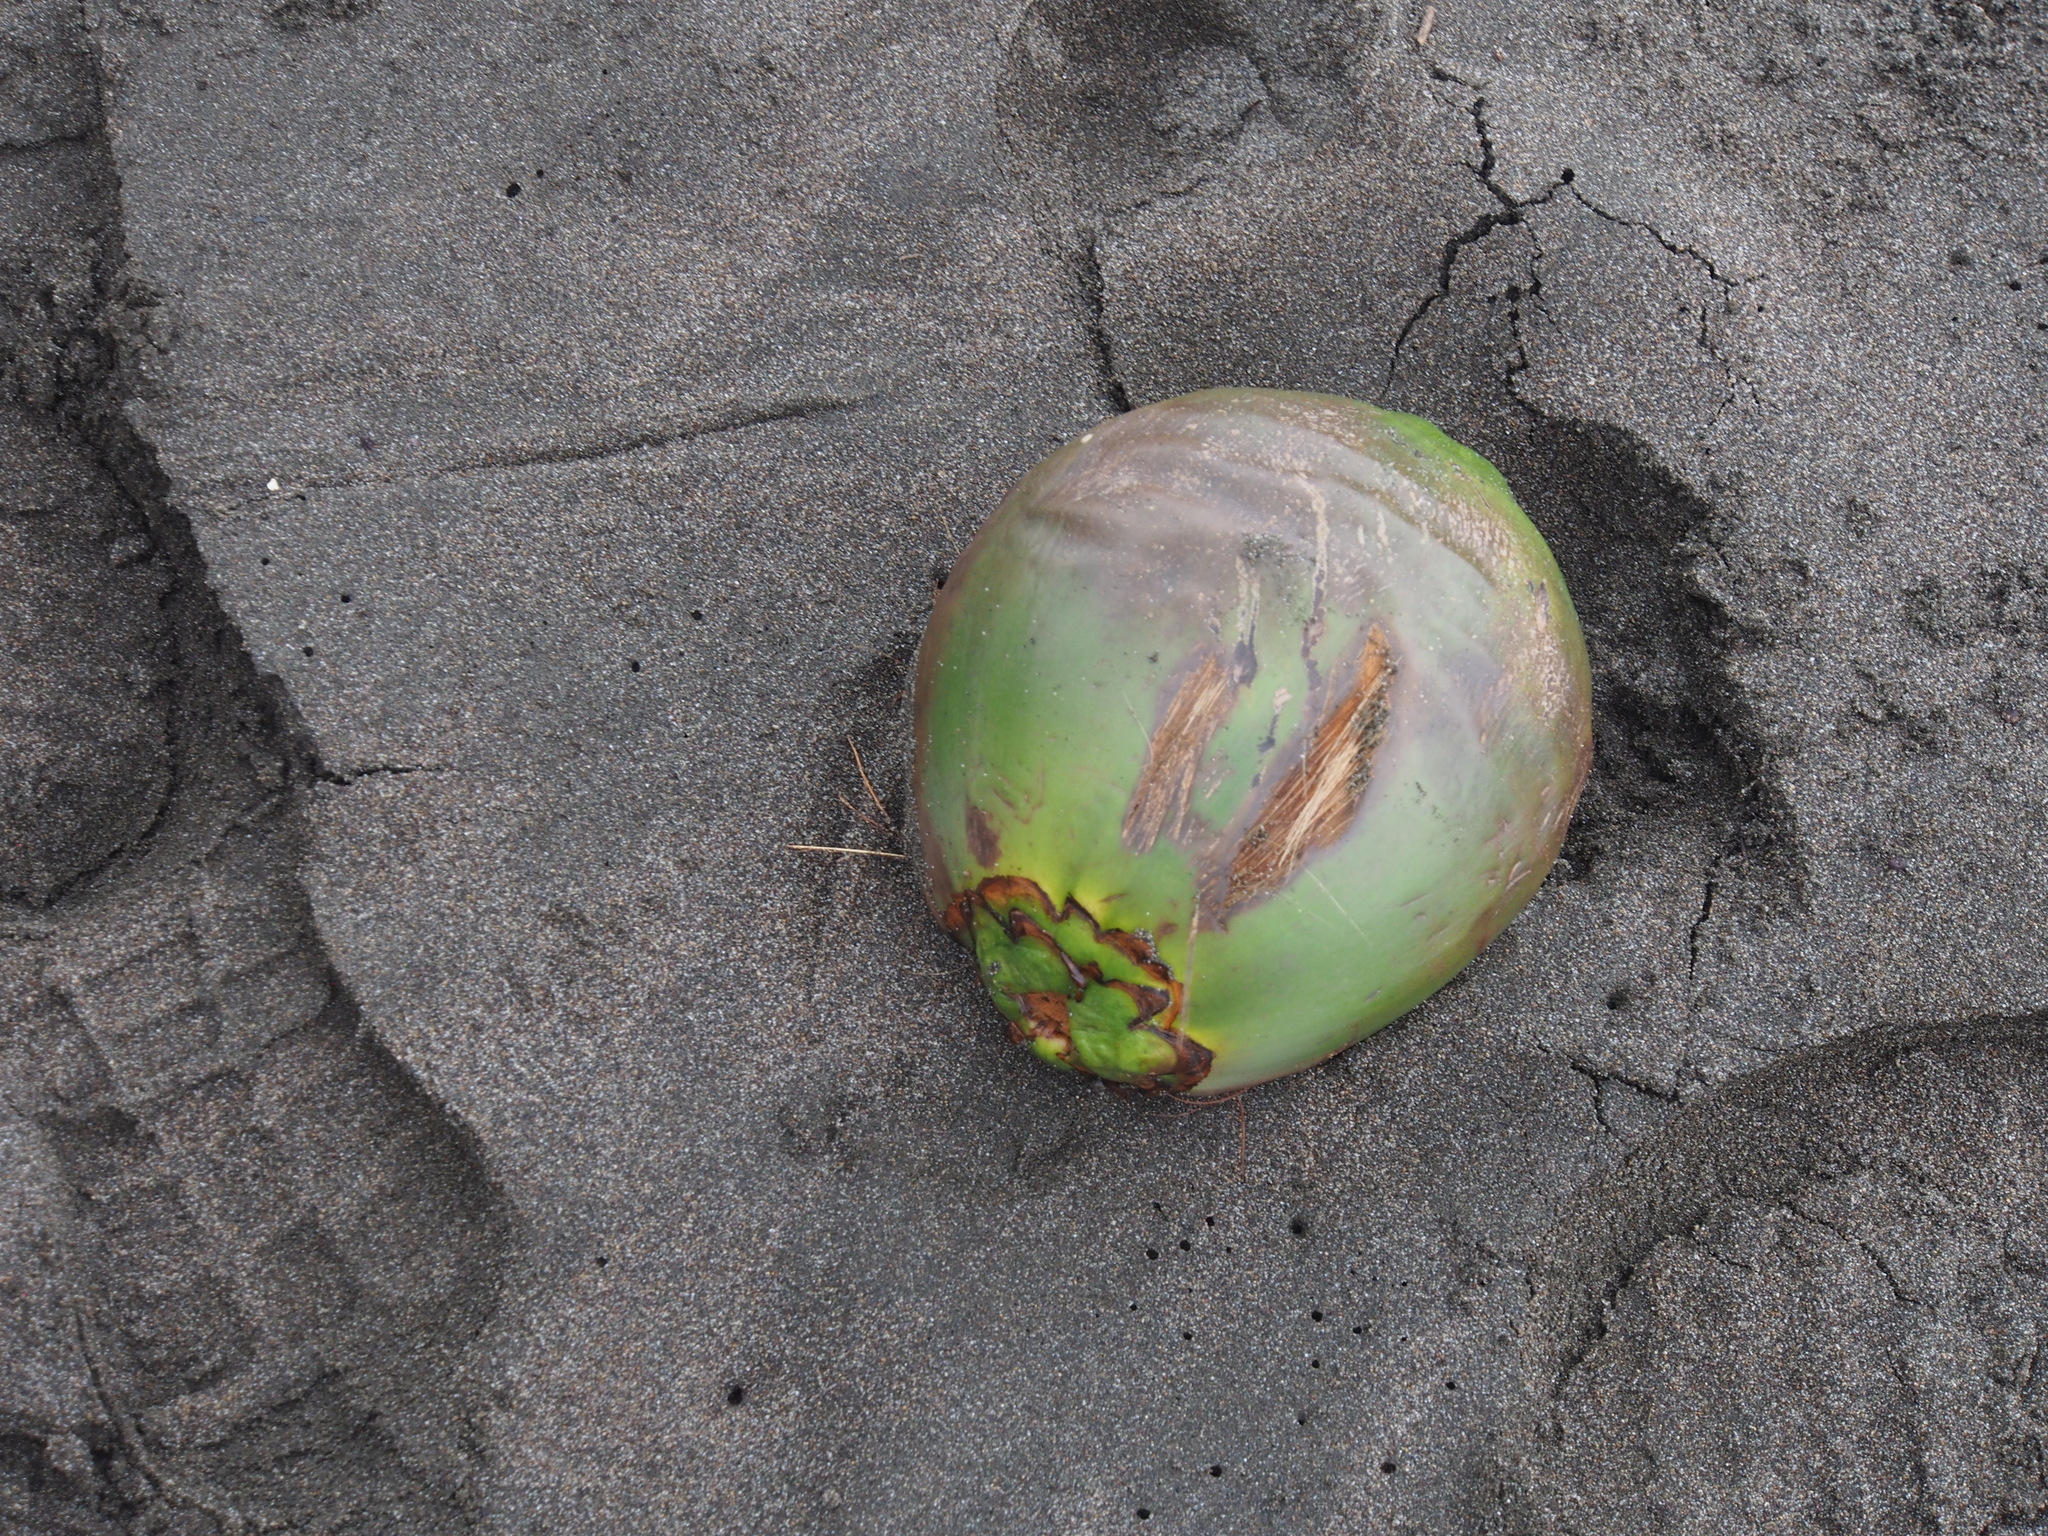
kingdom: Plantae
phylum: Tracheophyta
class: Liliopsida
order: Arecales
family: Arecaceae
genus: Cocos
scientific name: Cocos nucifera
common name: Coconut palm
